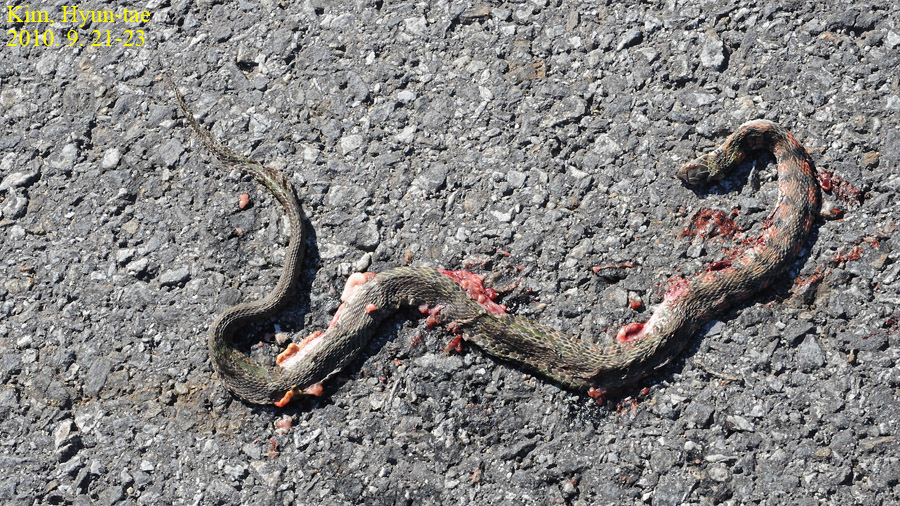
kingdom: Animalia
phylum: Chordata
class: Squamata
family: Colubridae
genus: Rhabdophis
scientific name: Rhabdophis tigrinus
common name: Tiger keelback
